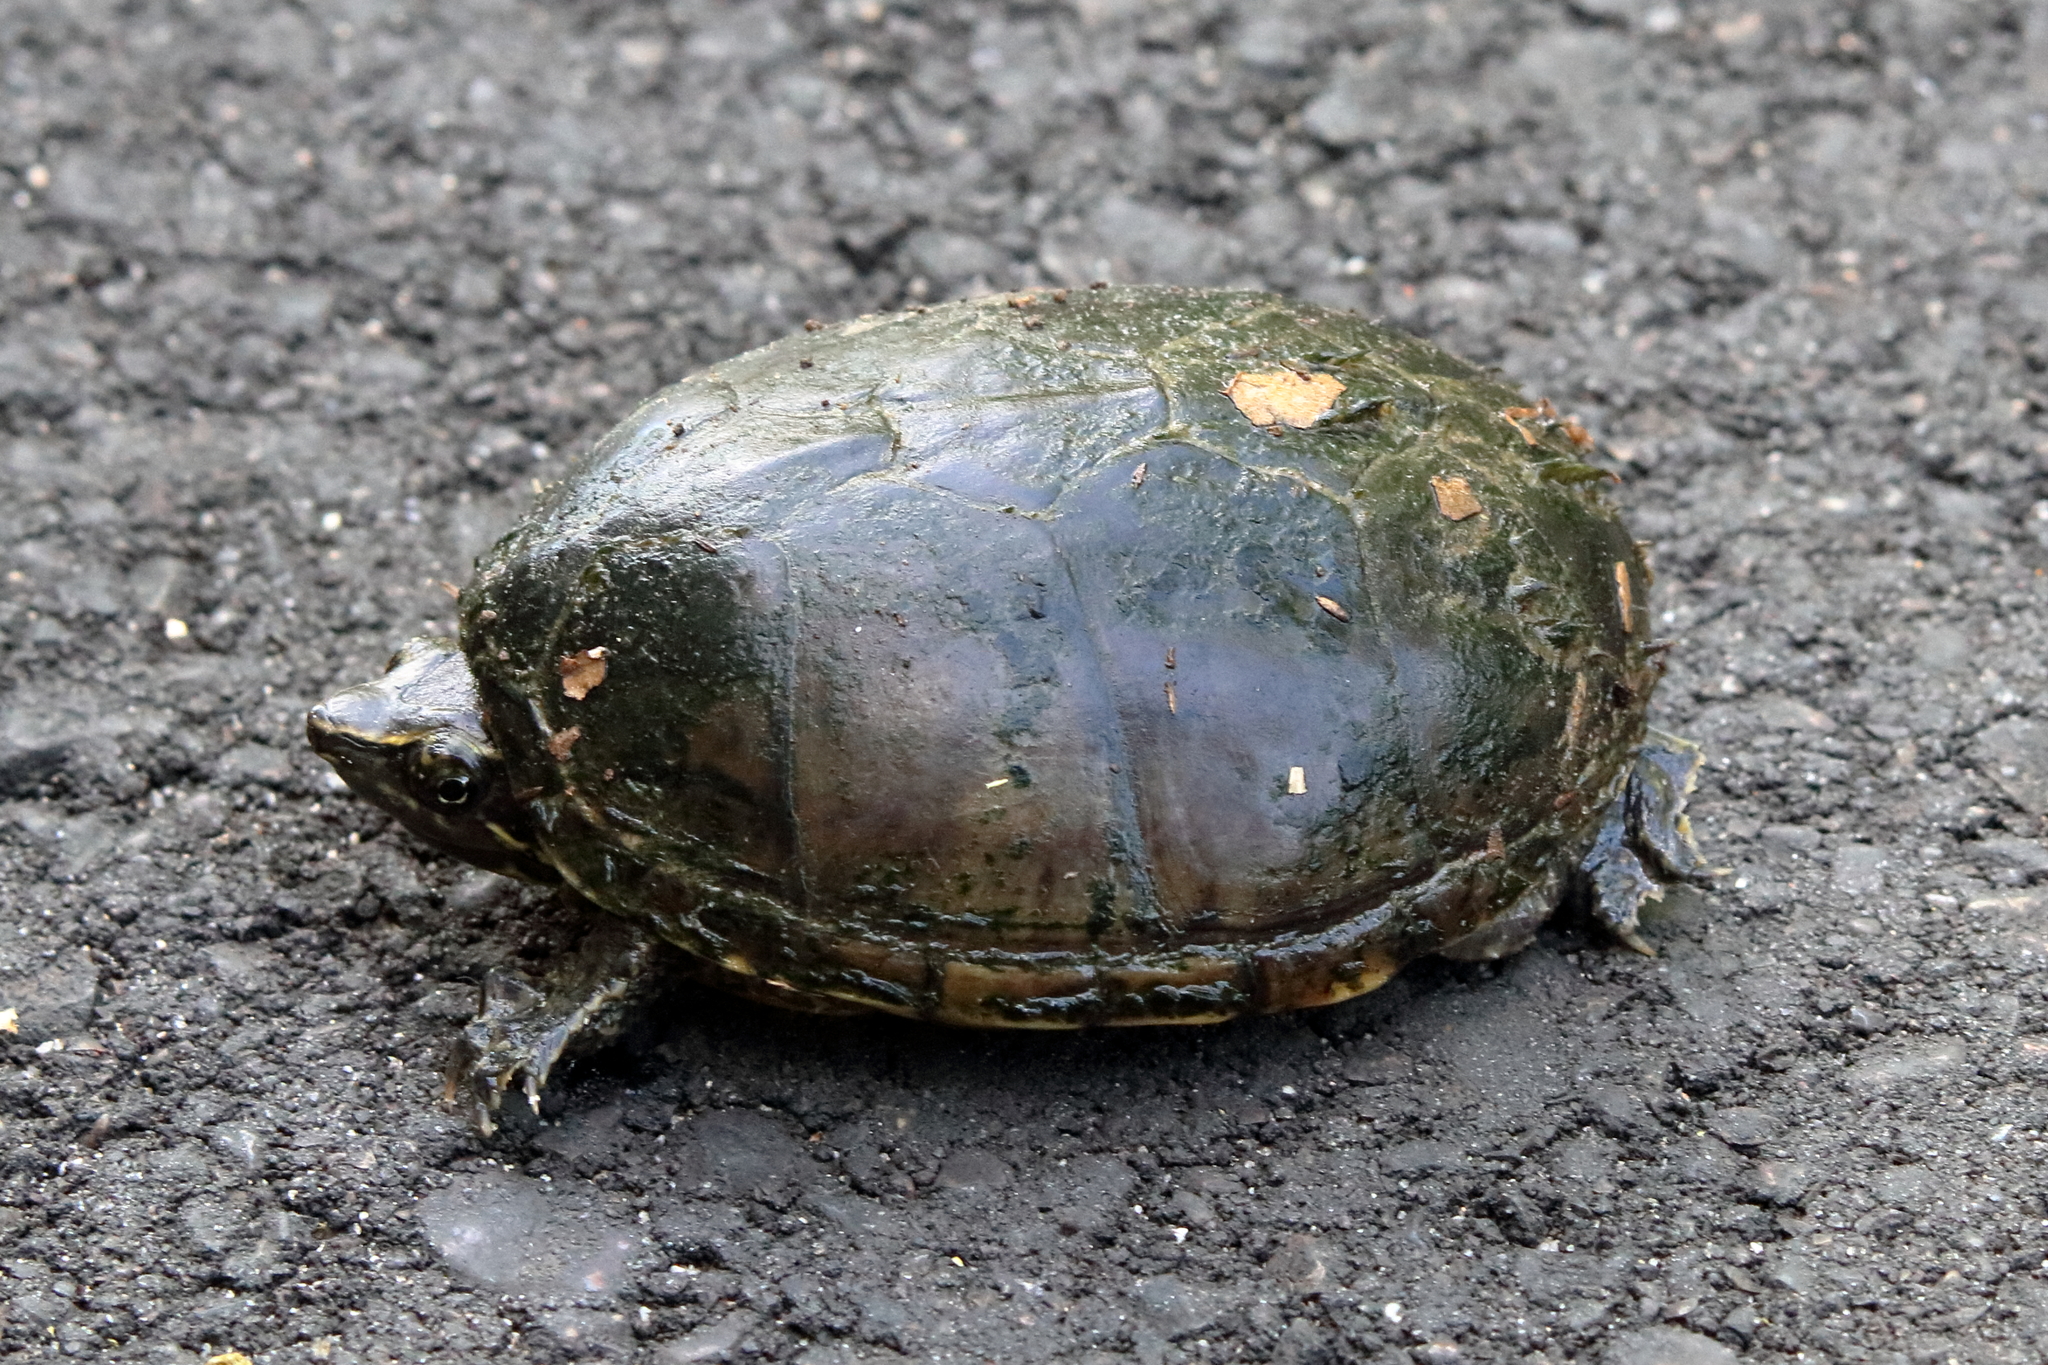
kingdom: Animalia
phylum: Chordata
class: Testudines
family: Kinosternidae
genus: Sternotherus
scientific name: Sternotherus odoratus
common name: Common musk turtle
